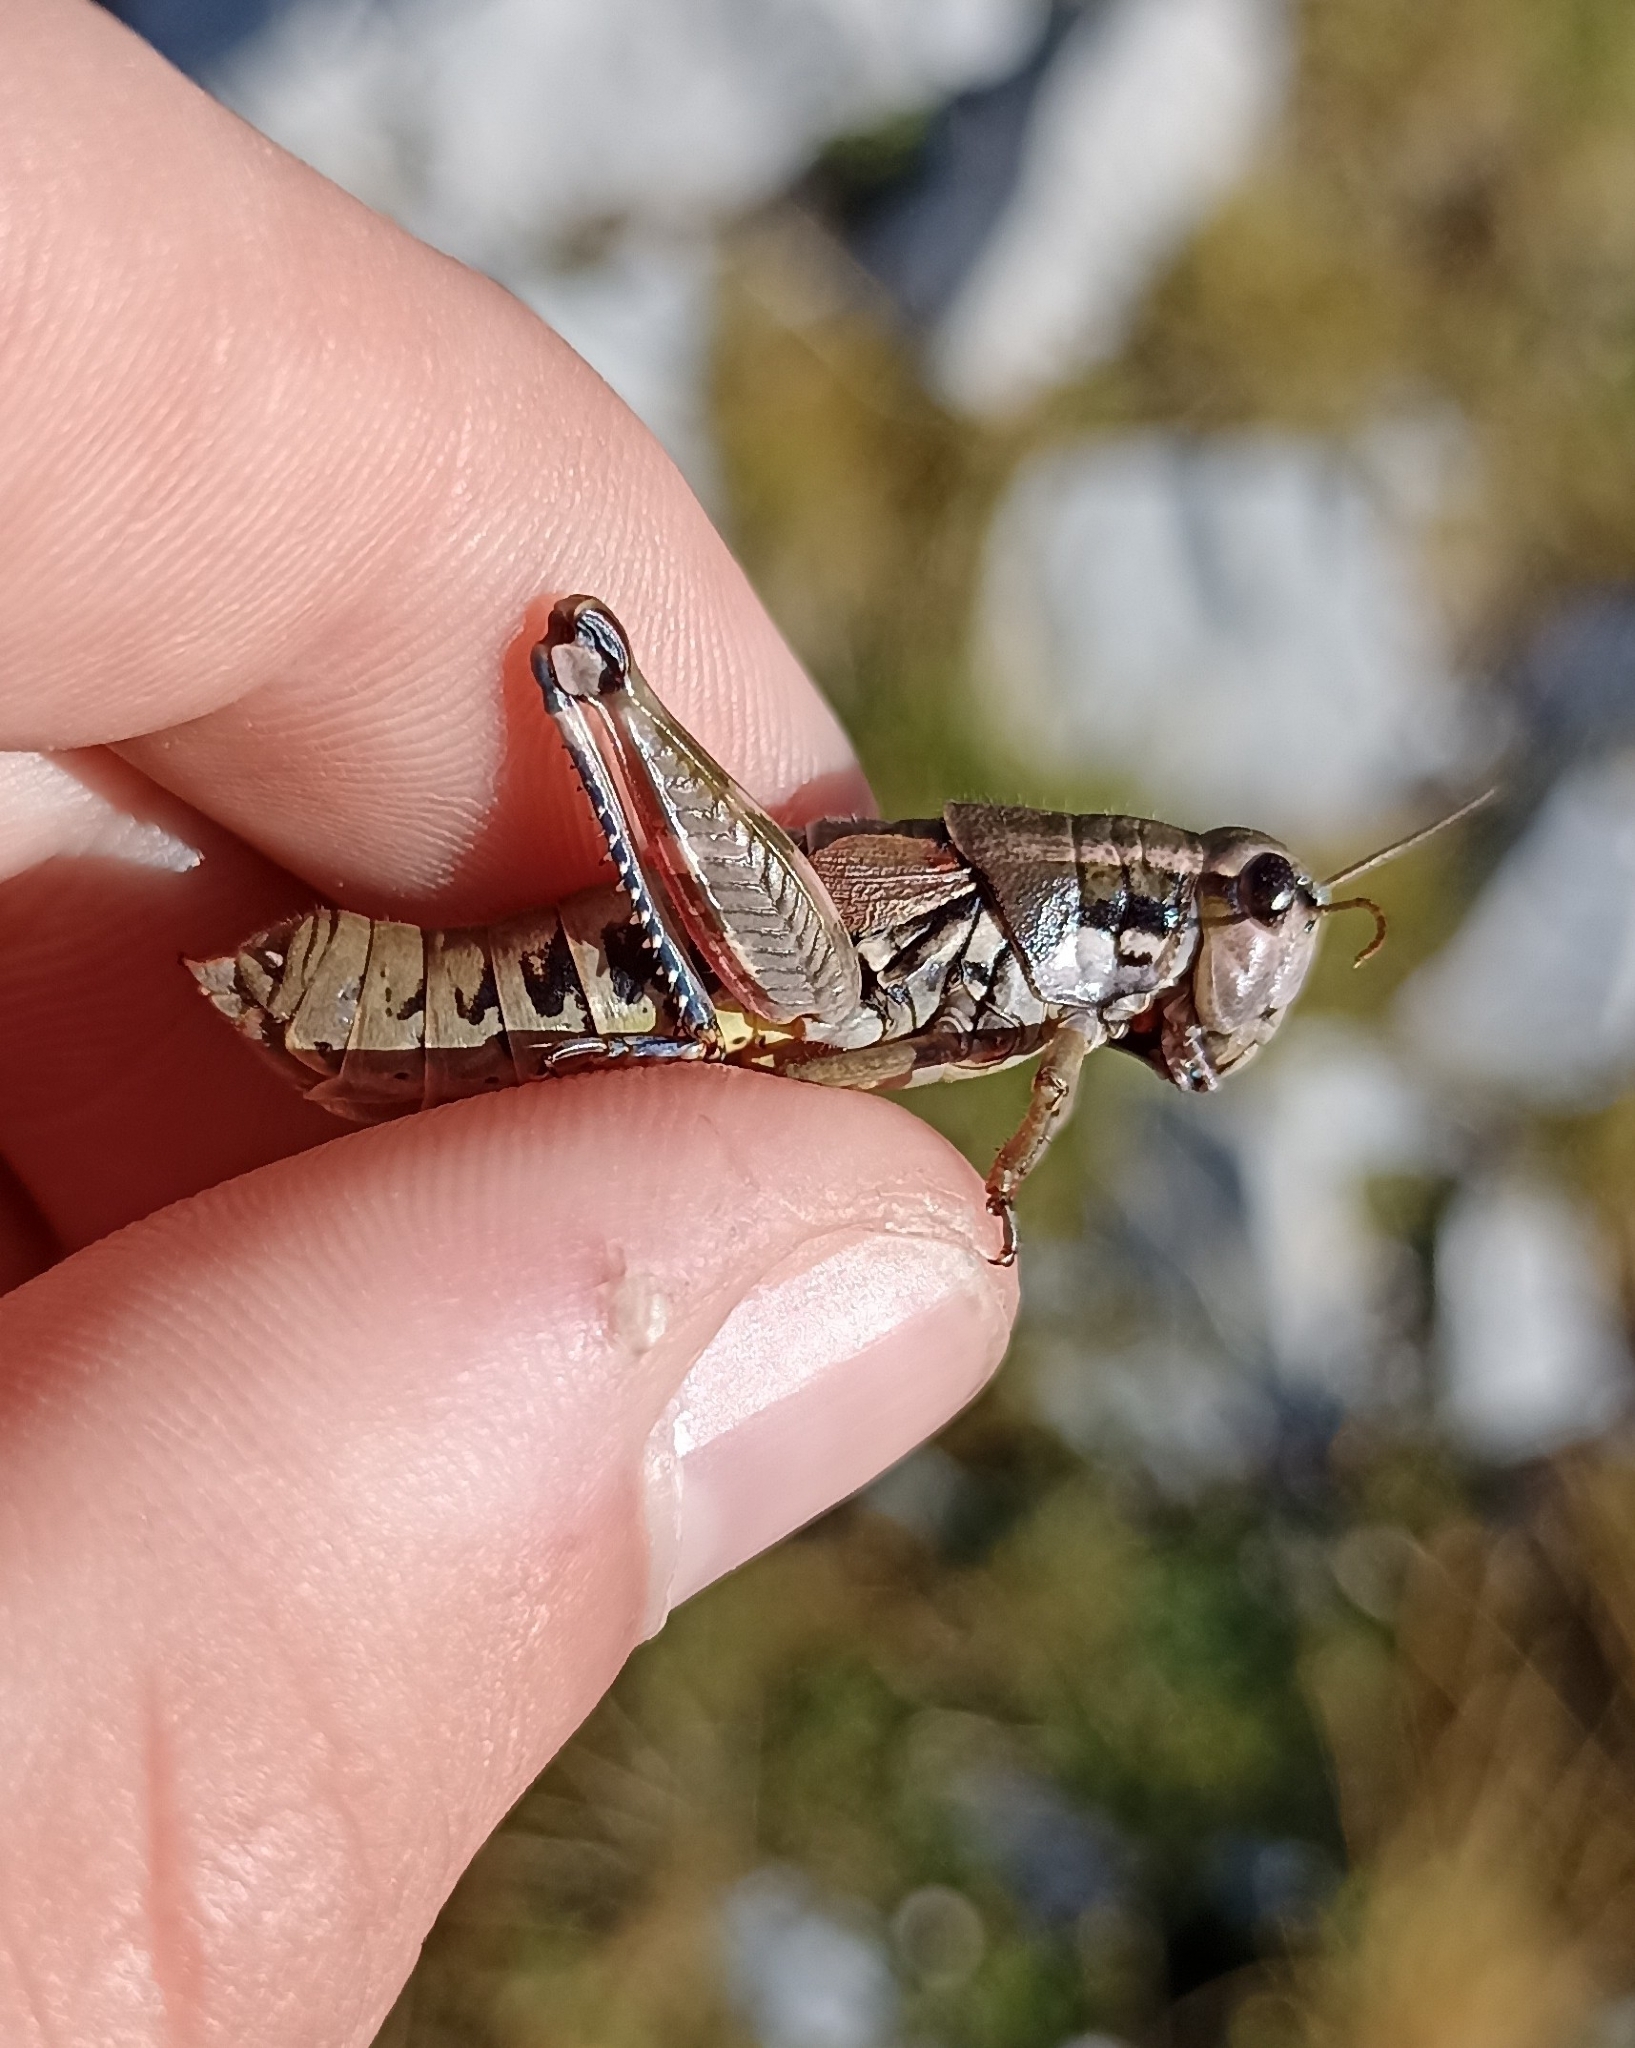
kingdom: Animalia
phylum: Arthropoda
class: Insecta
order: Orthoptera
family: Acrididae
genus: Podisma
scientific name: Podisma pedestris
